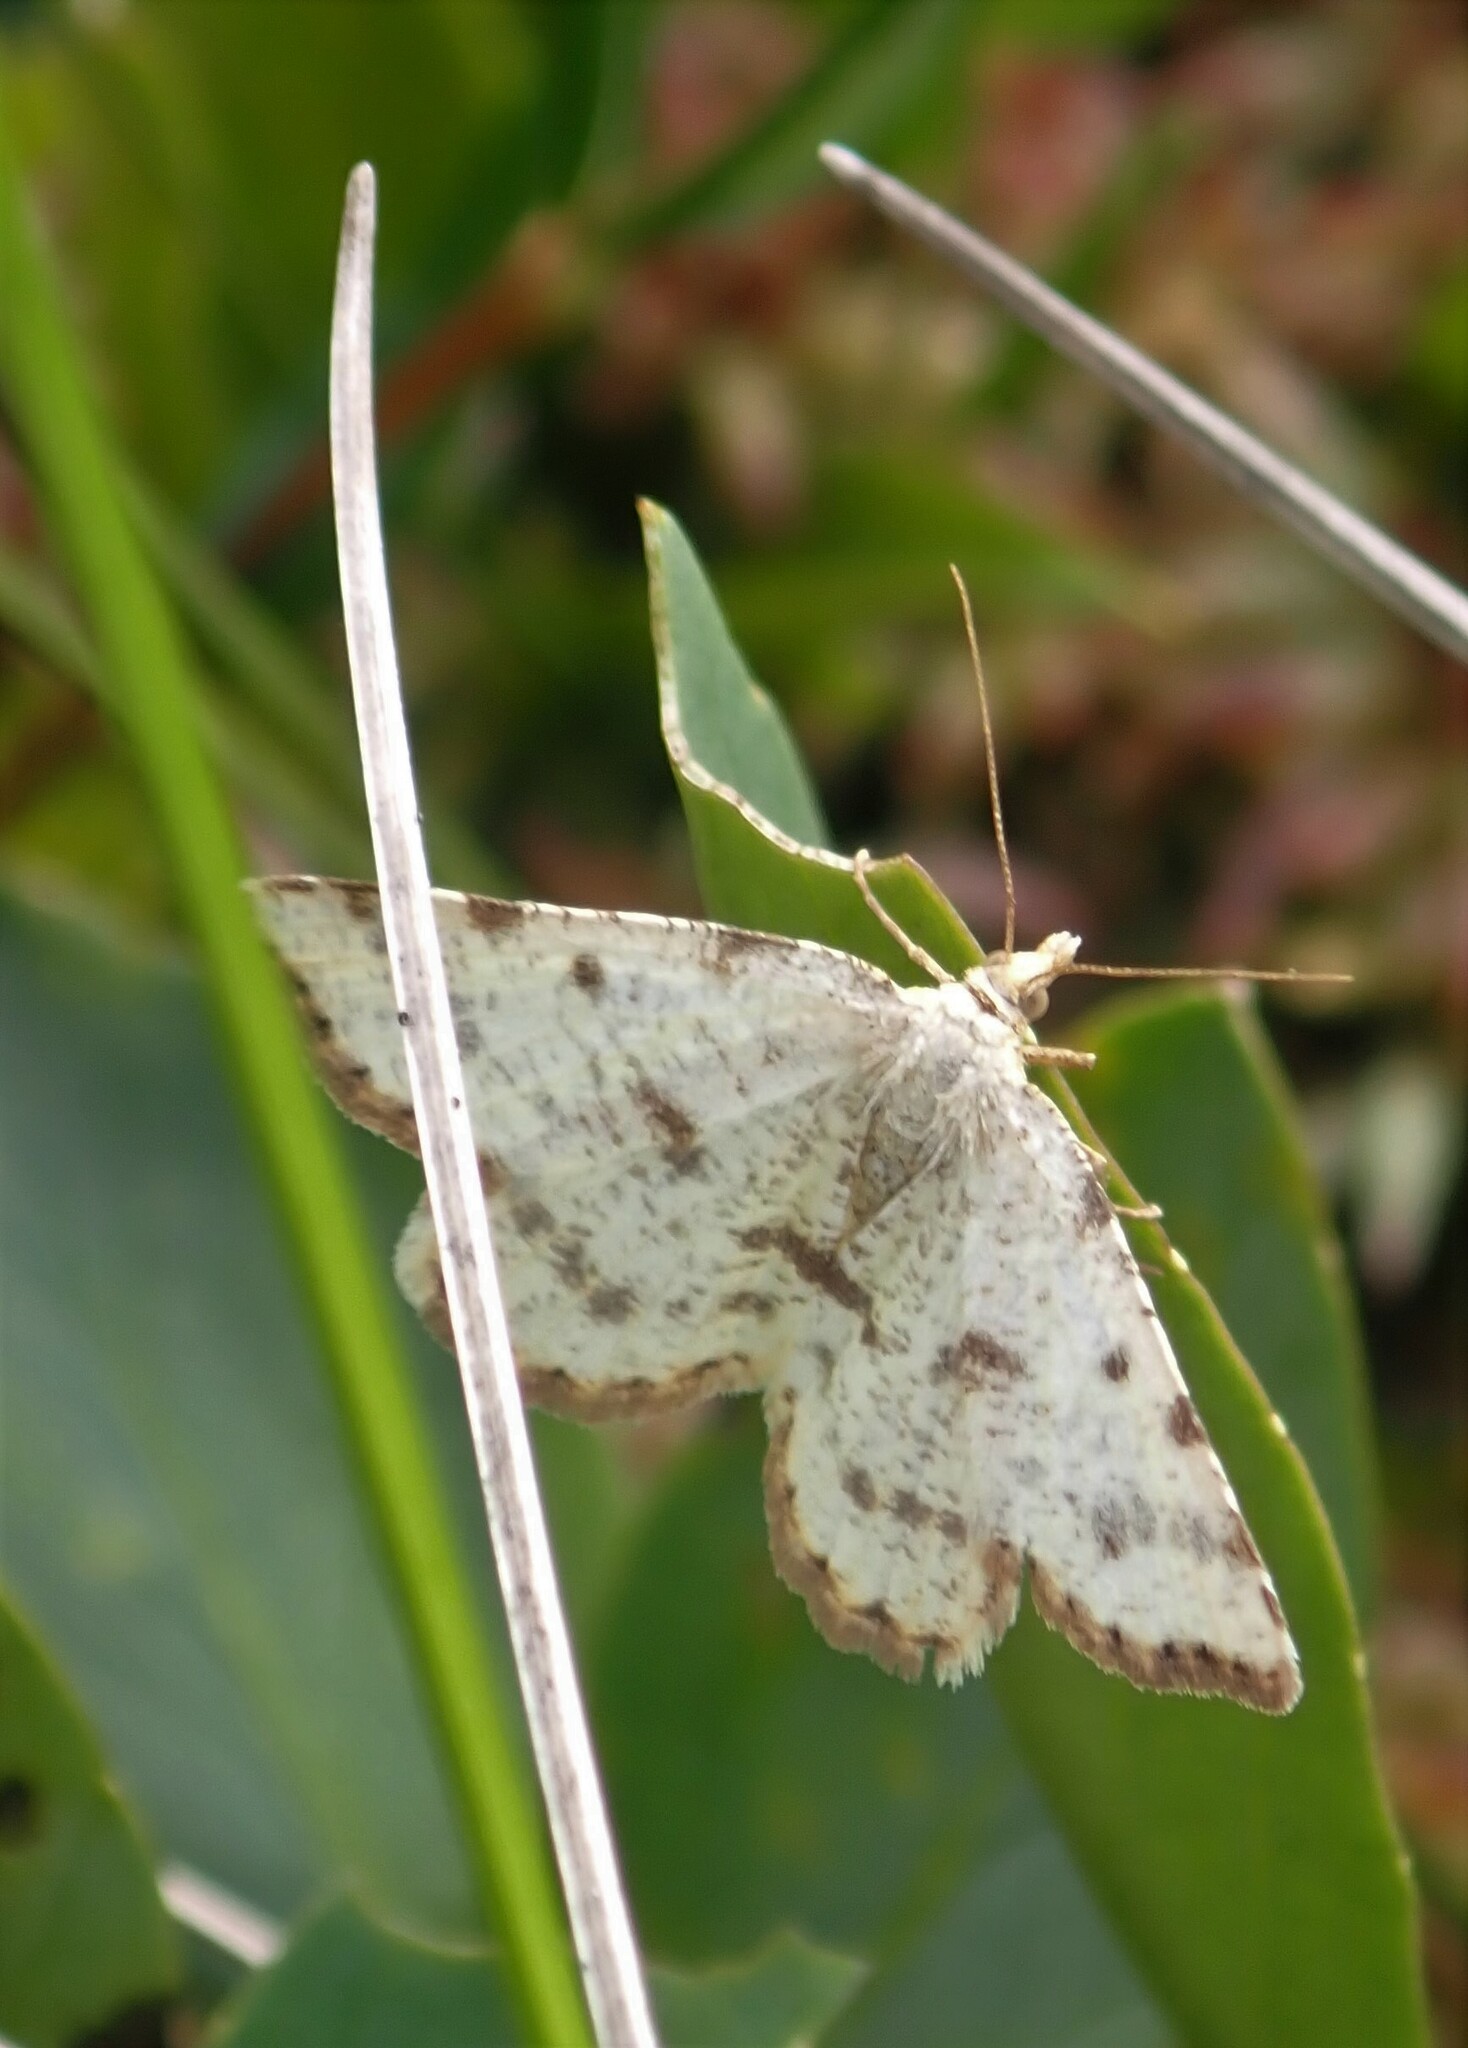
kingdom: Animalia
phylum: Arthropoda
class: Insecta
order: Lepidoptera
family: Geometridae
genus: Macaria
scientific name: Macaria sulphurea
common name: Sulphur angle
